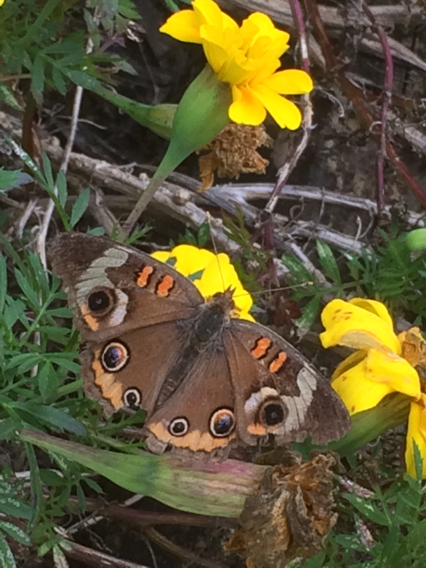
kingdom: Animalia
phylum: Arthropoda
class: Insecta
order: Lepidoptera
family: Nymphalidae
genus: Junonia
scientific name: Junonia coenia
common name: Common buckeye
